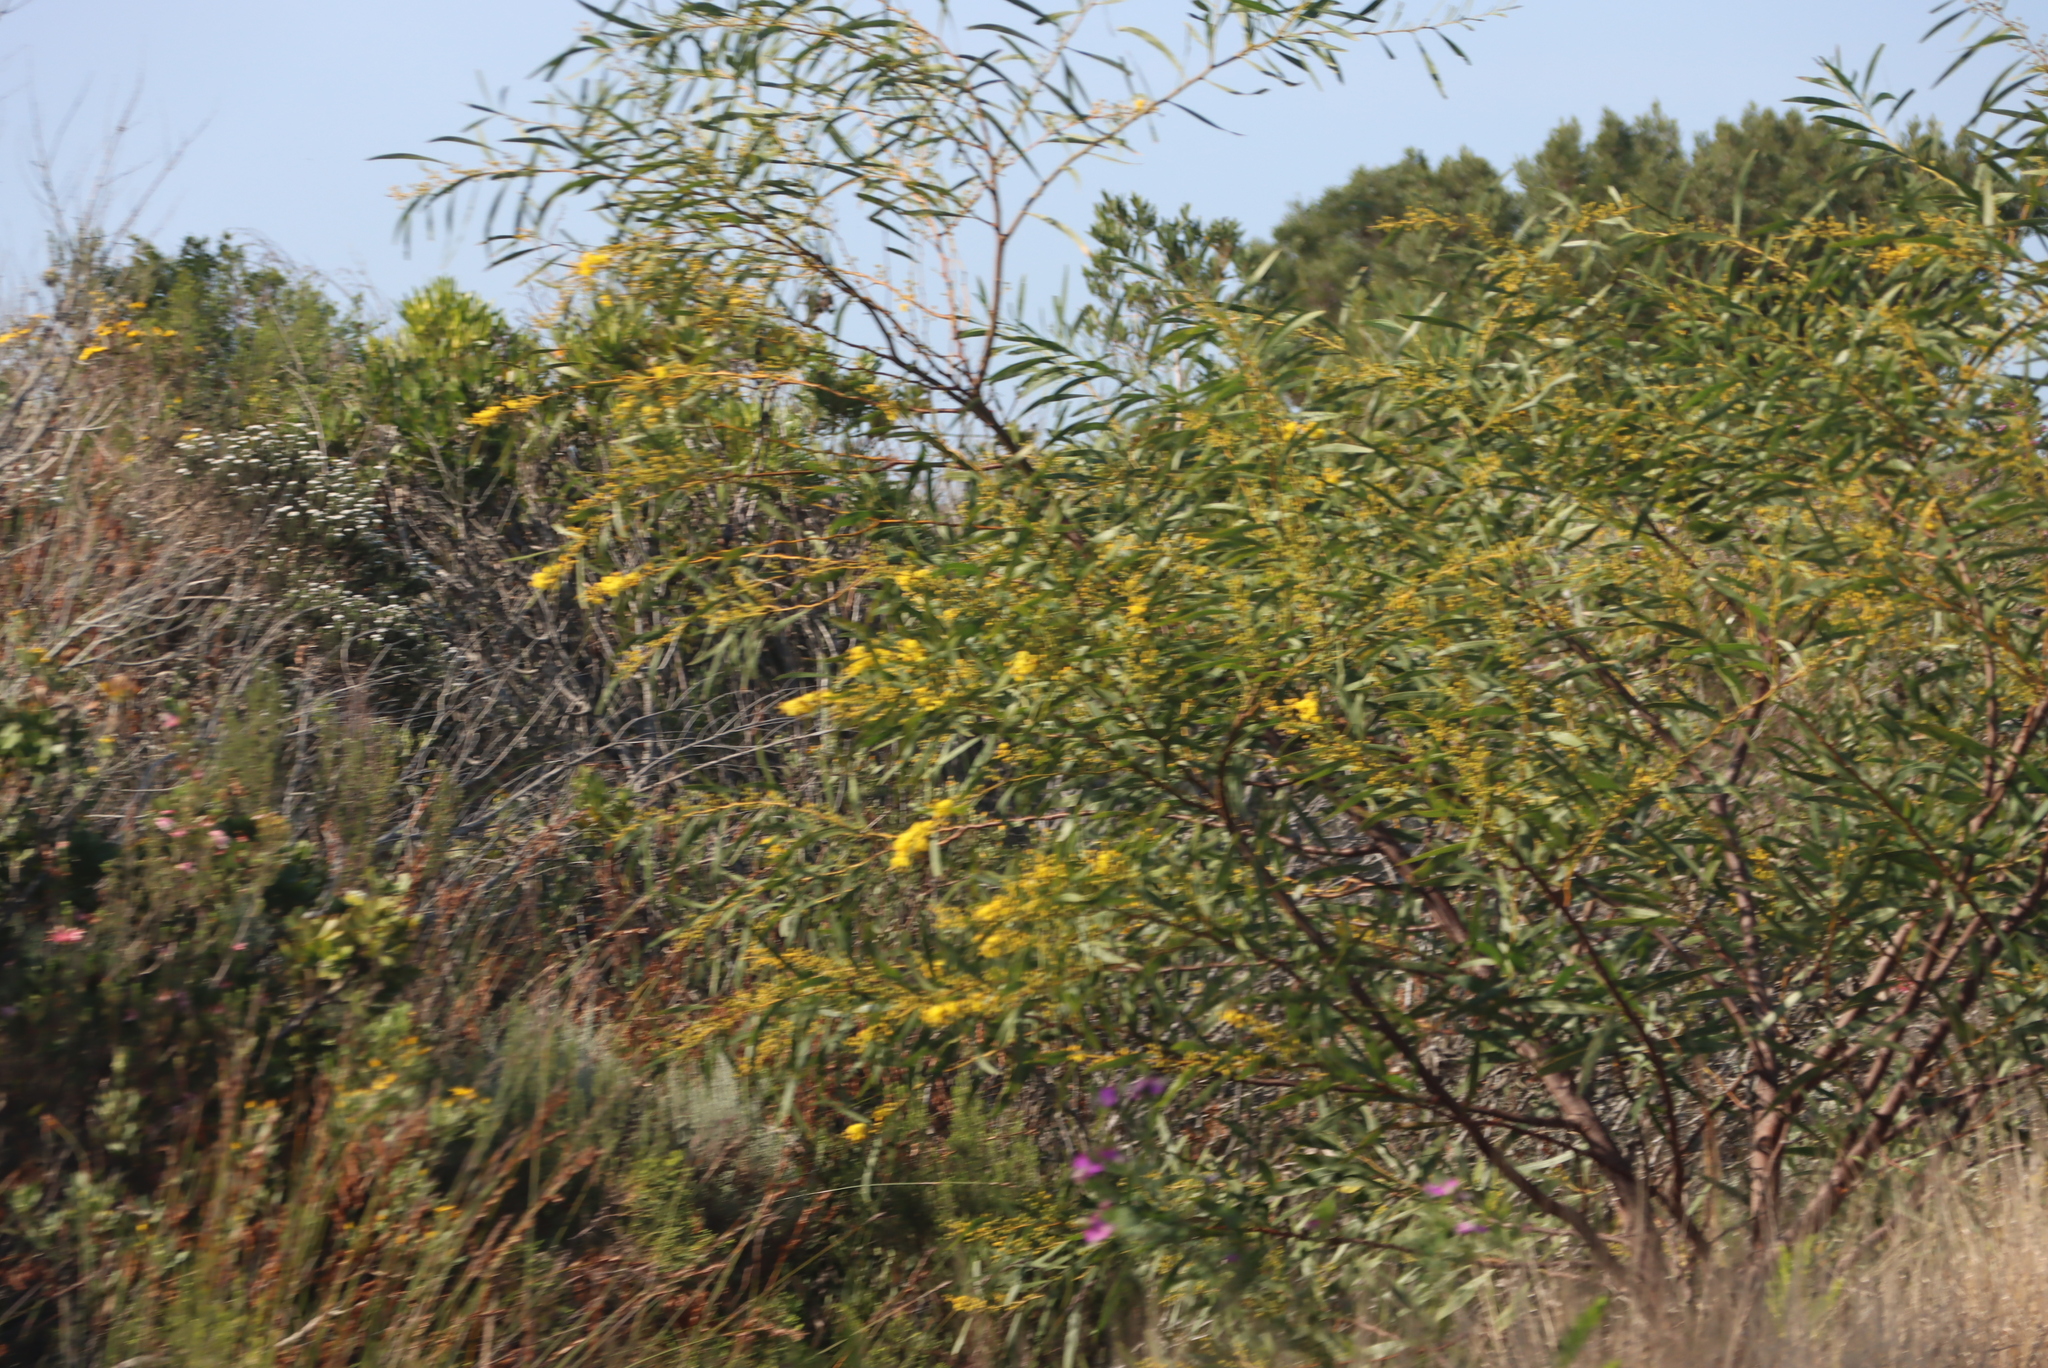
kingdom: Plantae
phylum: Tracheophyta
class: Magnoliopsida
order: Fabales
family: Fabaceae
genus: Acacia
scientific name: Acacia saligna
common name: Orange wattle
